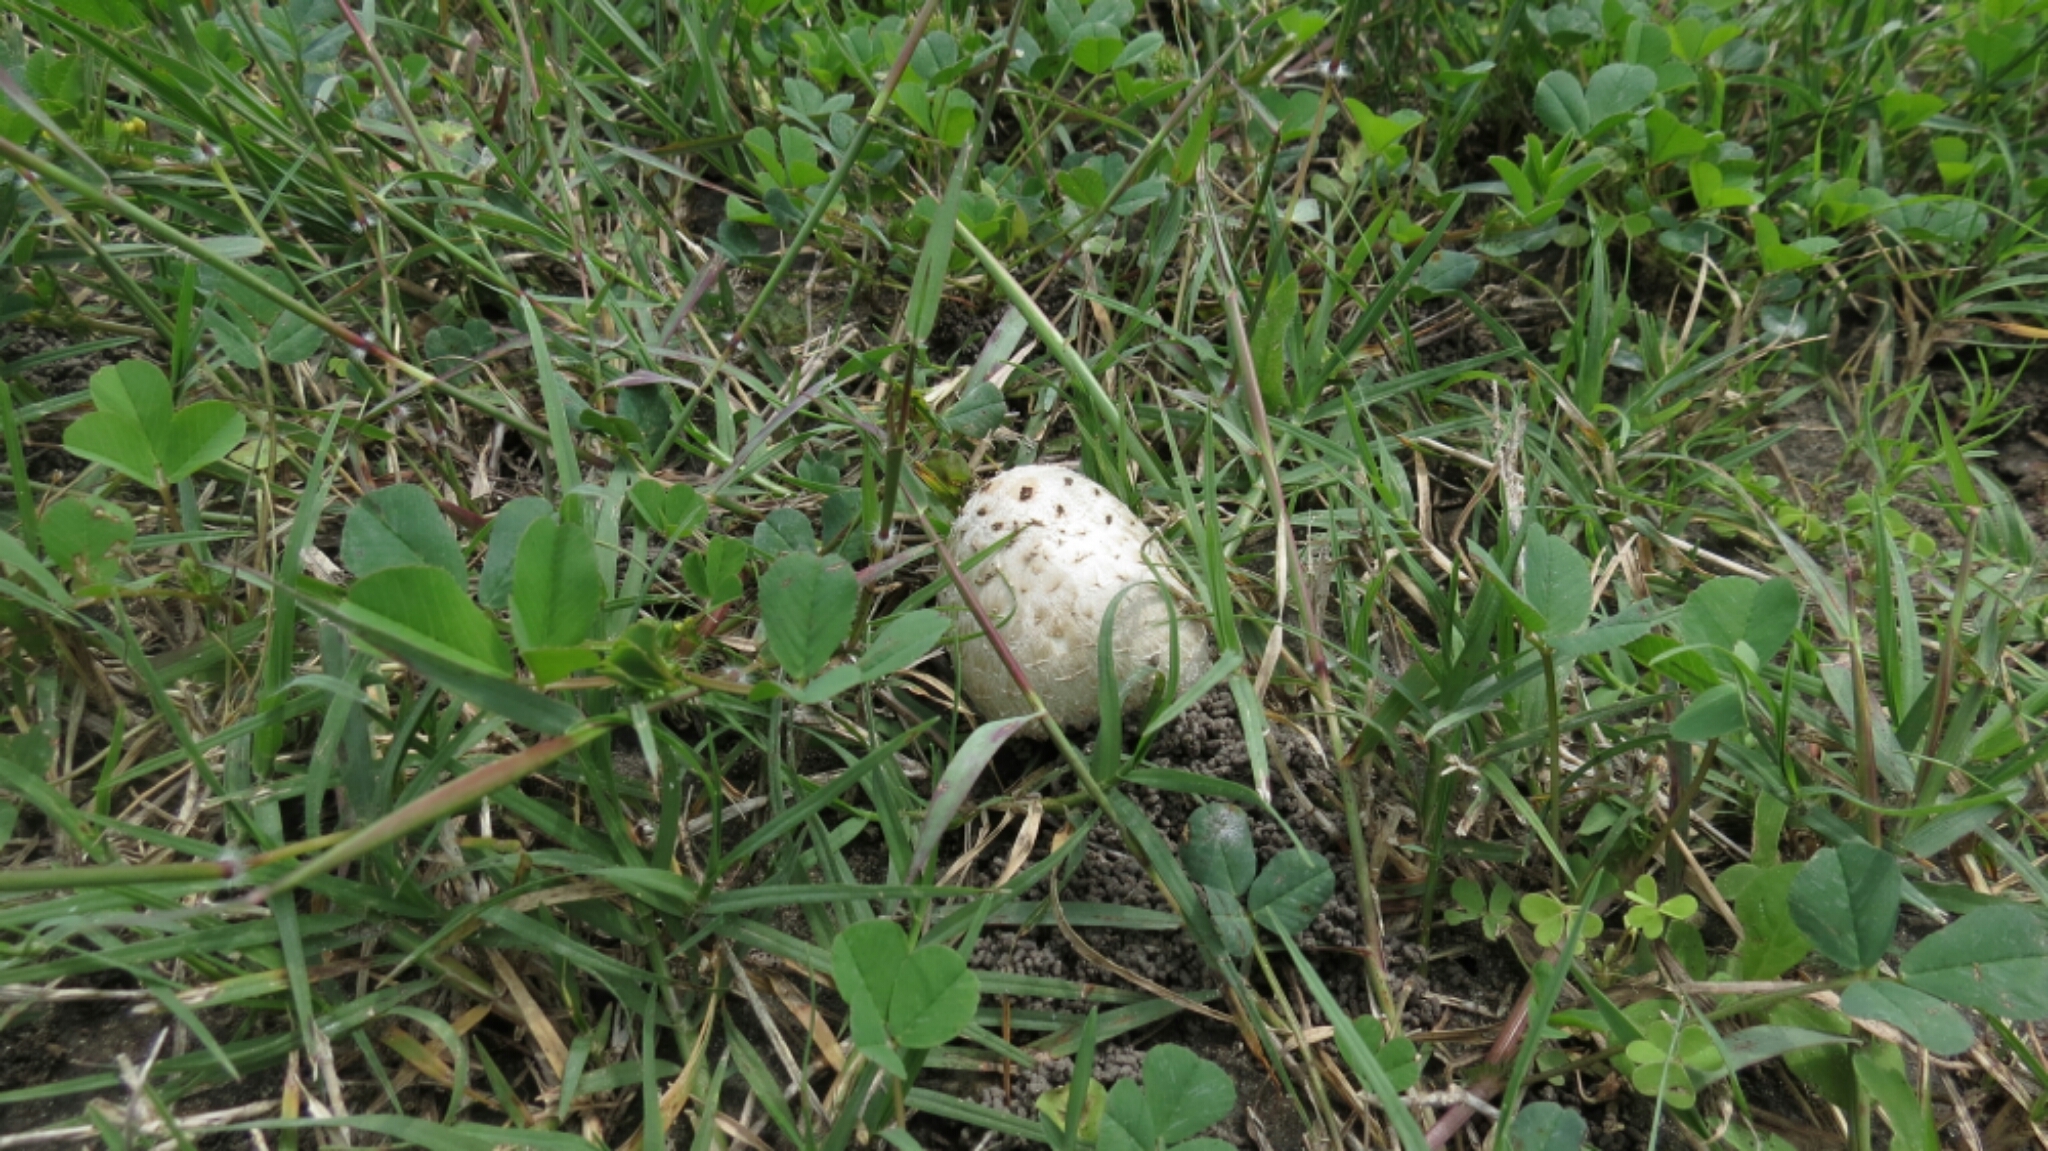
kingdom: Fungi
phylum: Basidiomycota
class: Agaricomycetes
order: Agaricales
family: Agaricaceae
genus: Coprinus
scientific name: Coprinus comatus
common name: Lawyer's wig
